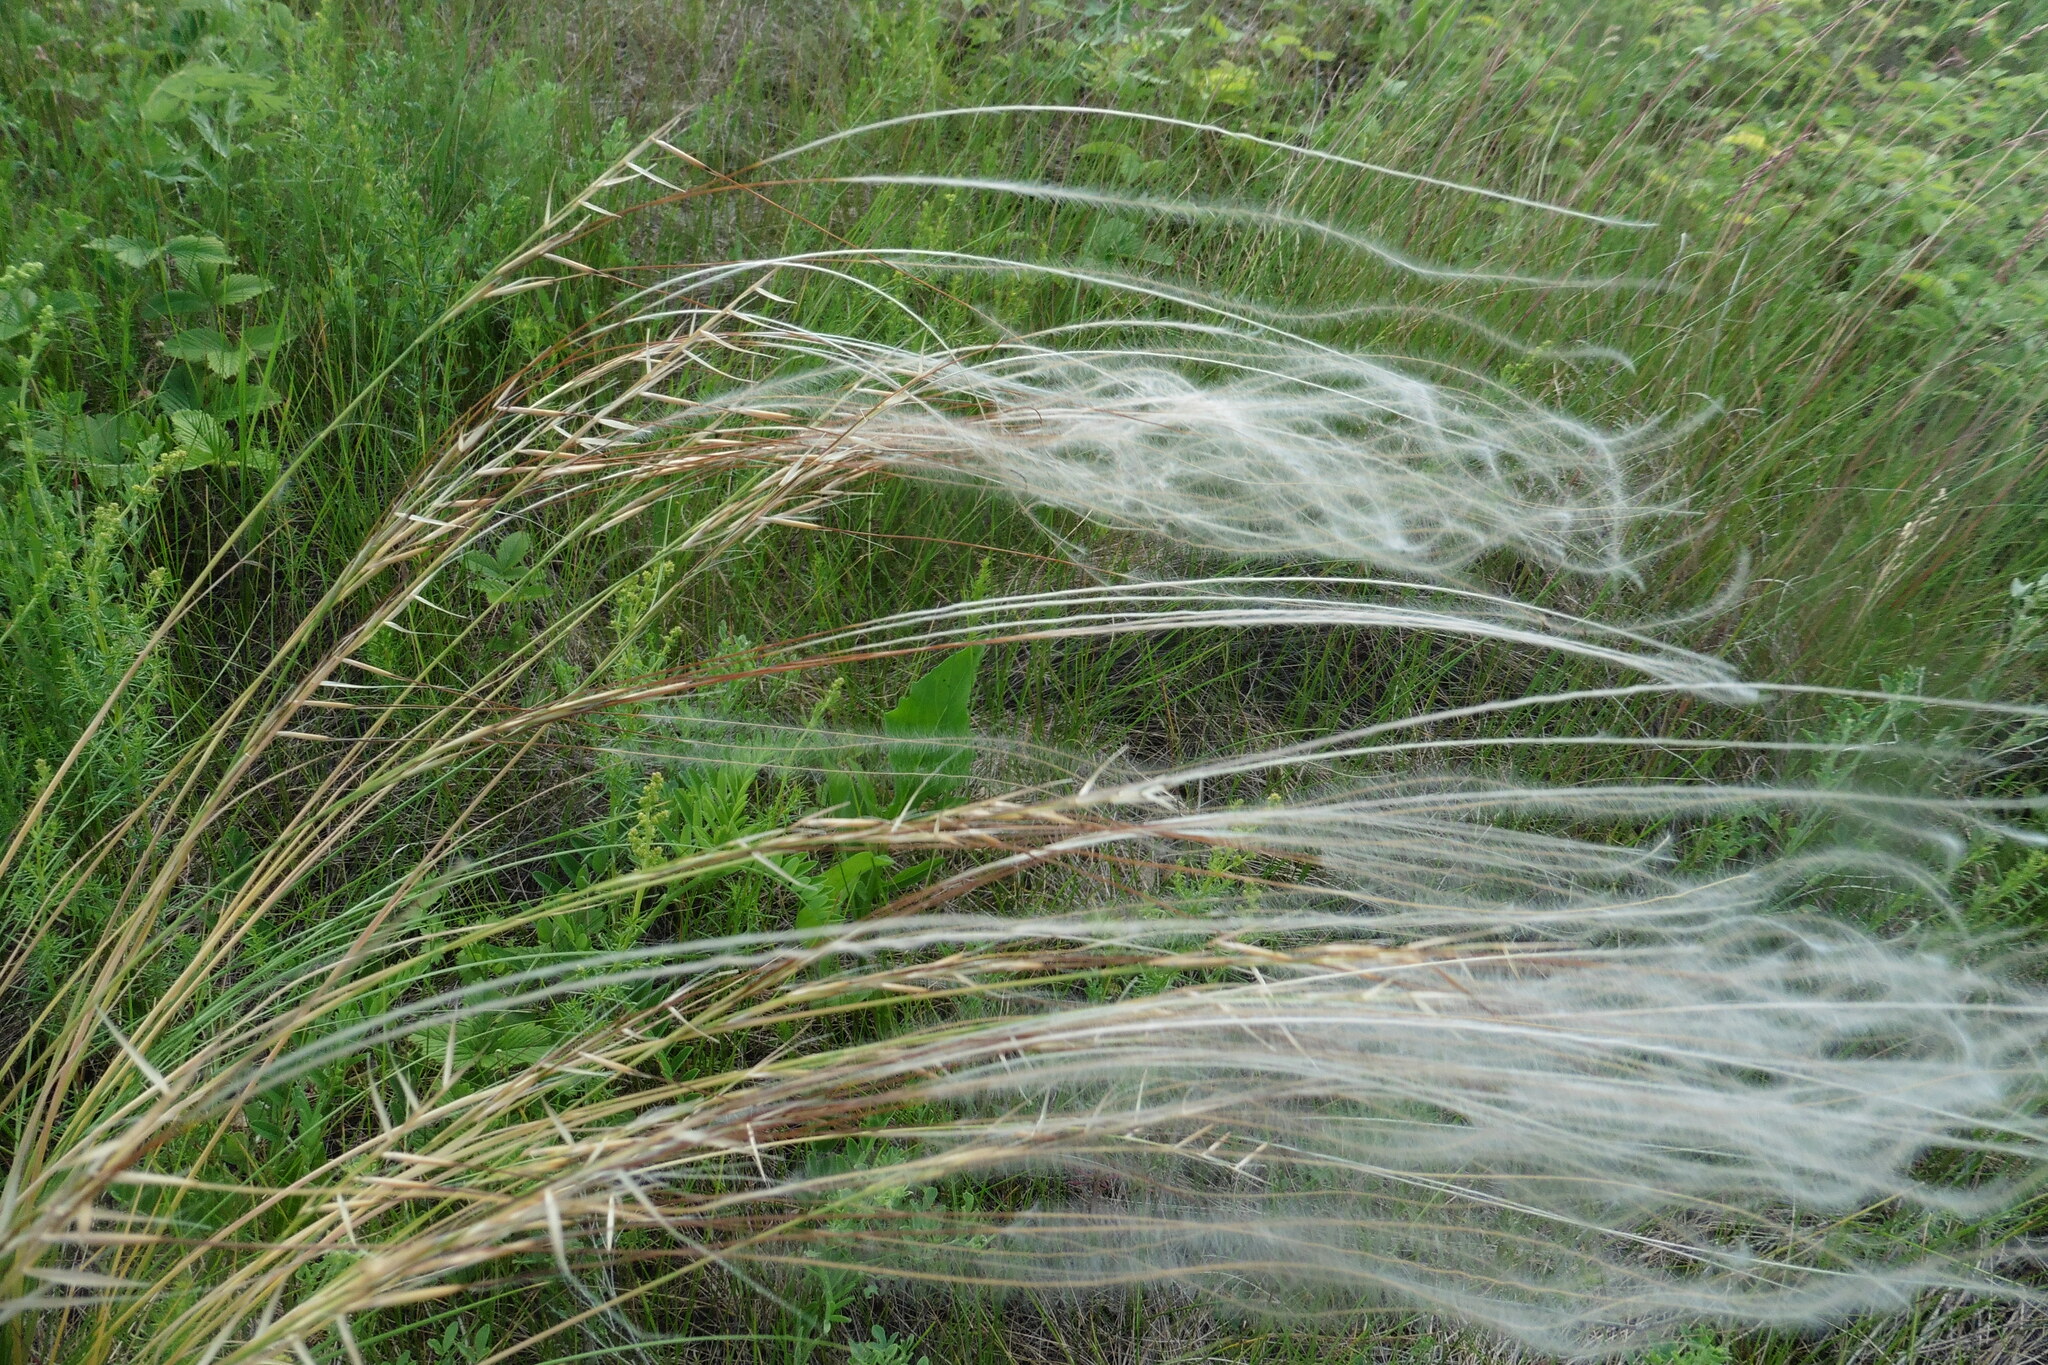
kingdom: Plantae
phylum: Tracheophyta
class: Liliopsida
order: Poales
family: Poaceae
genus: Stipa
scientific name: Stipa pennata
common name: European feather grass
